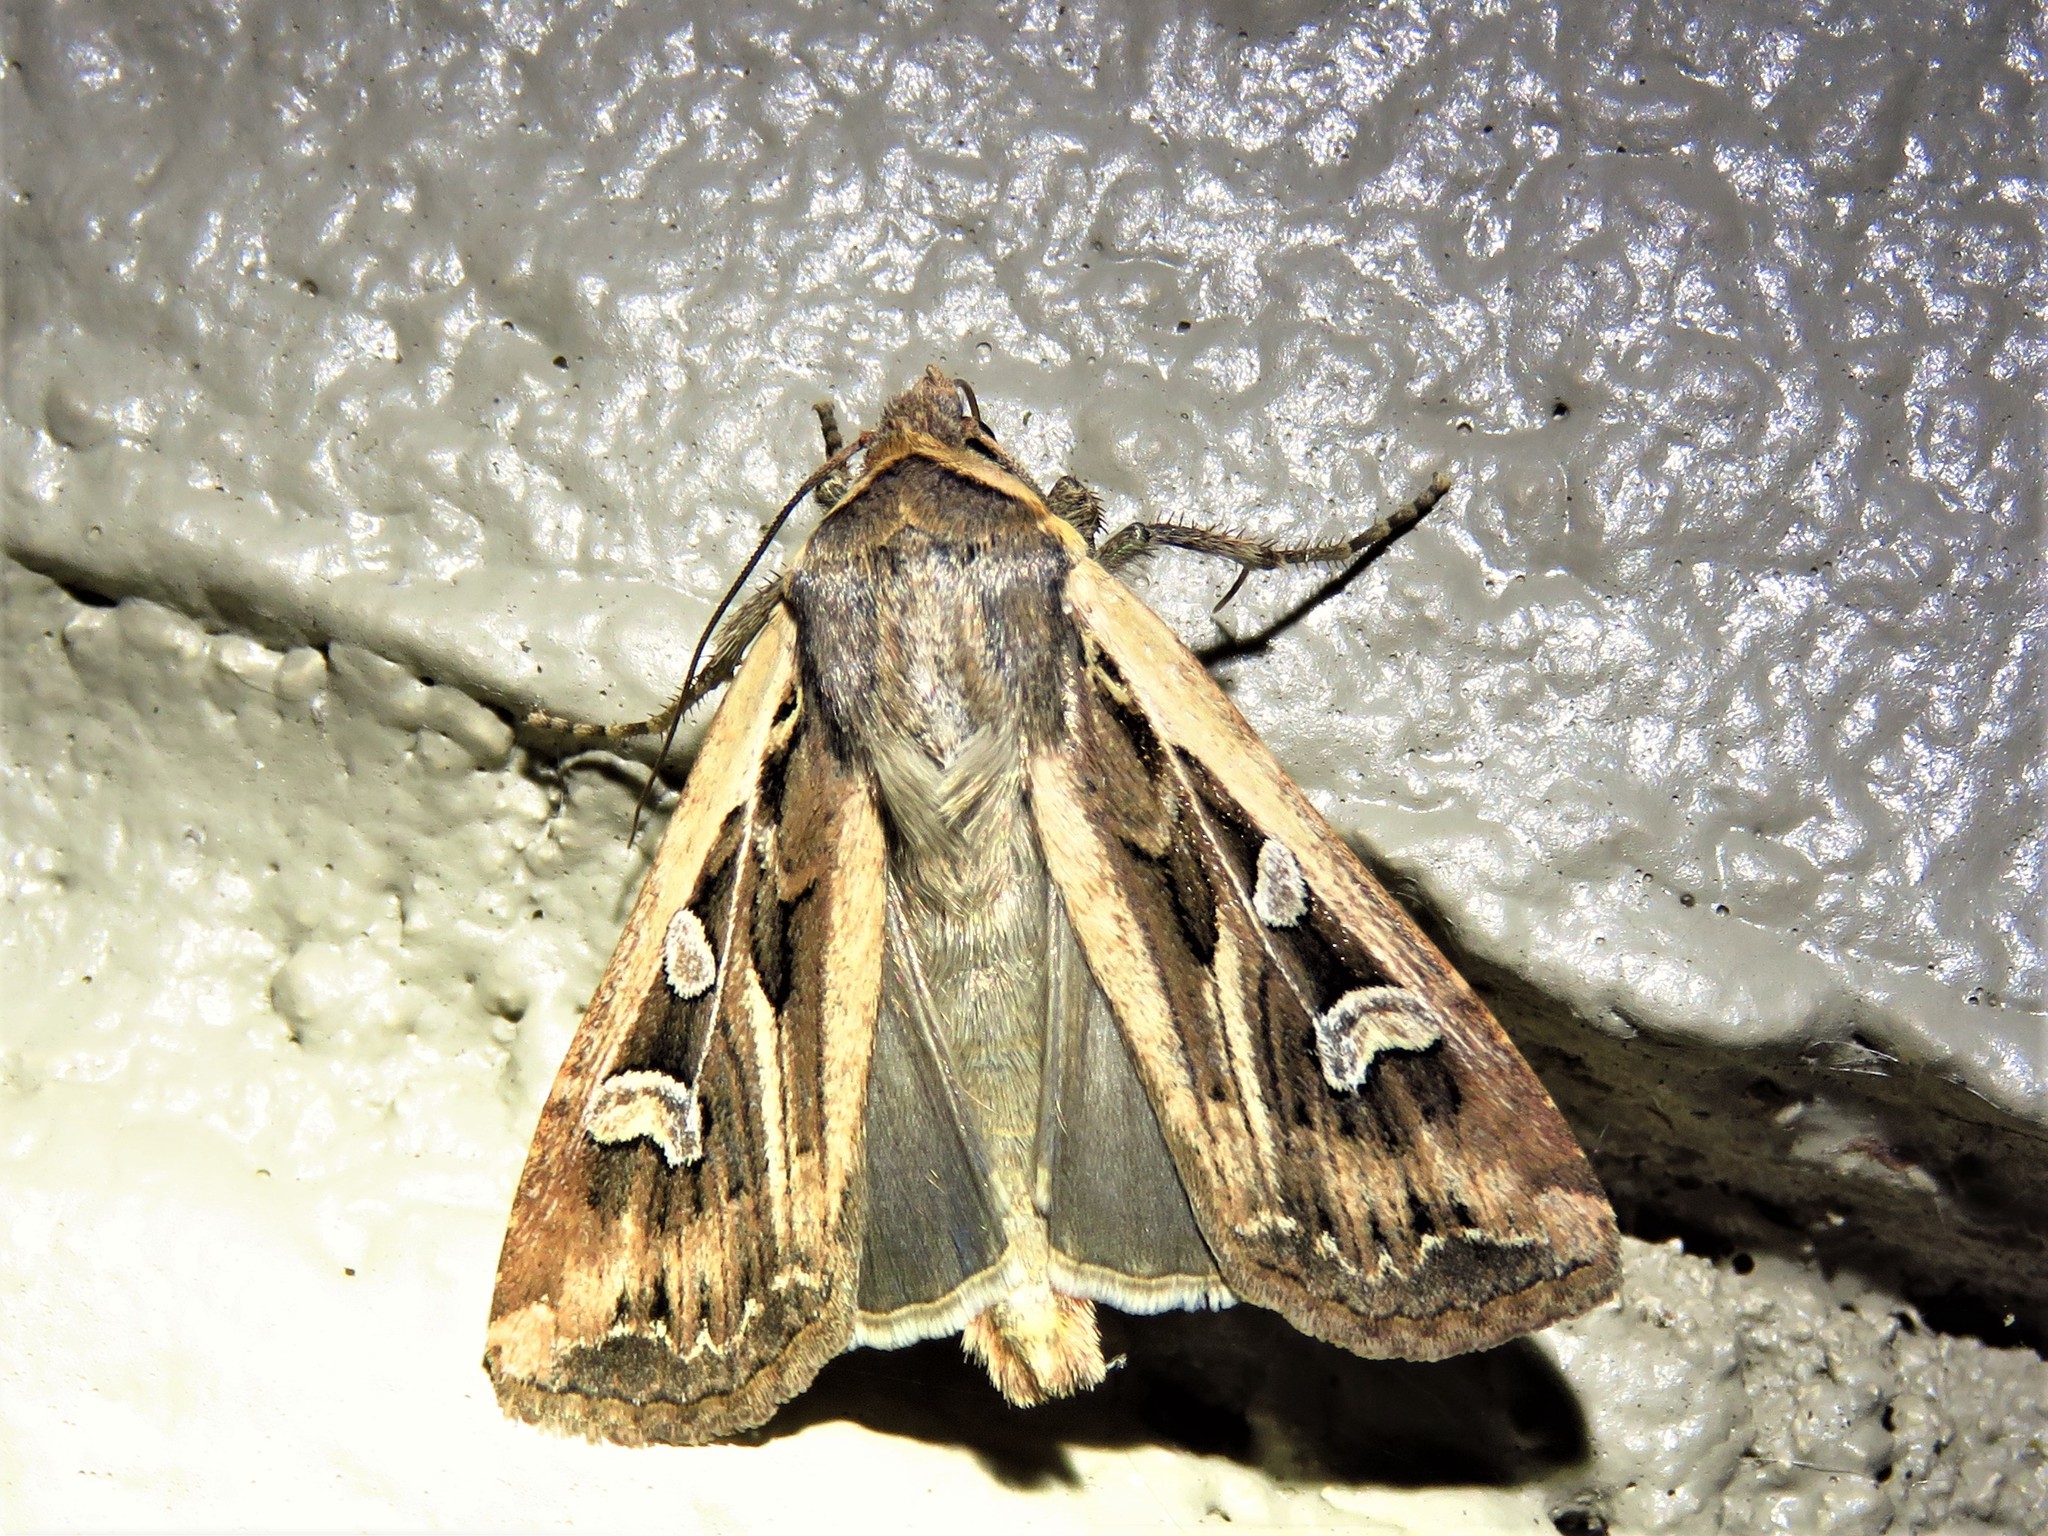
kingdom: Animalia
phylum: Arthropoda
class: Insecta
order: Lepidoptera
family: Noctuidae
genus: Euxoa
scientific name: Euxoa auxiliaris
